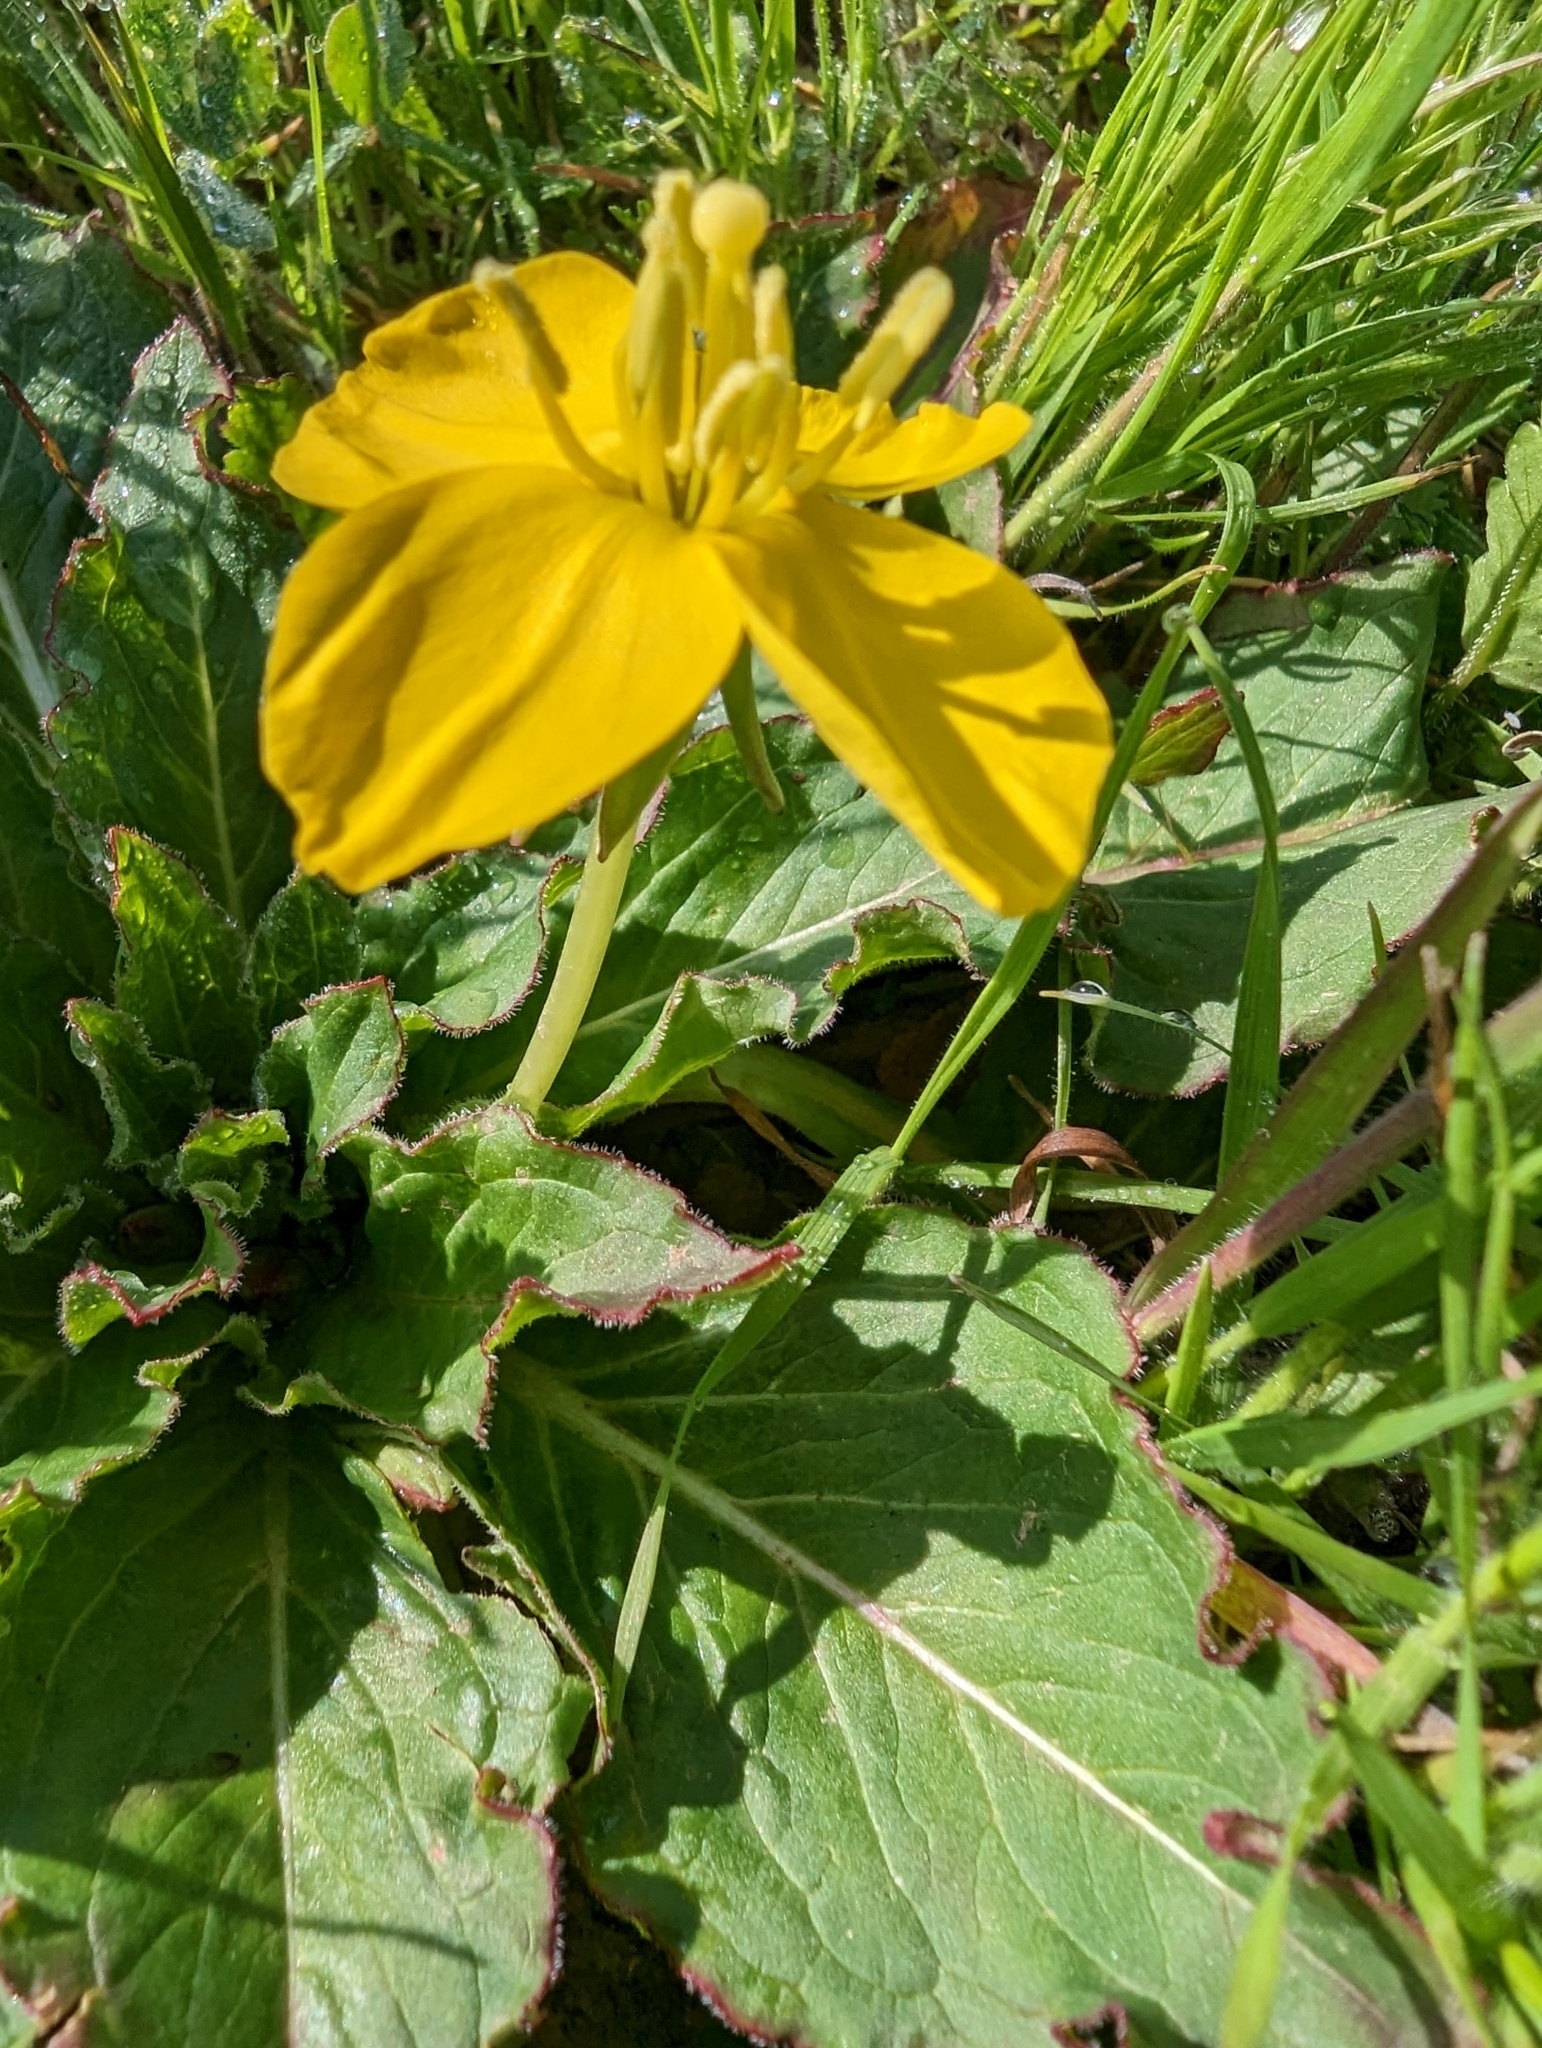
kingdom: Plantae
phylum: Tracheophyta
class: Magnoliopsida
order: Myrtales
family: Onagraceae
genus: Taraxia
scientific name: Taraxia ovata
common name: Goldeneggs
